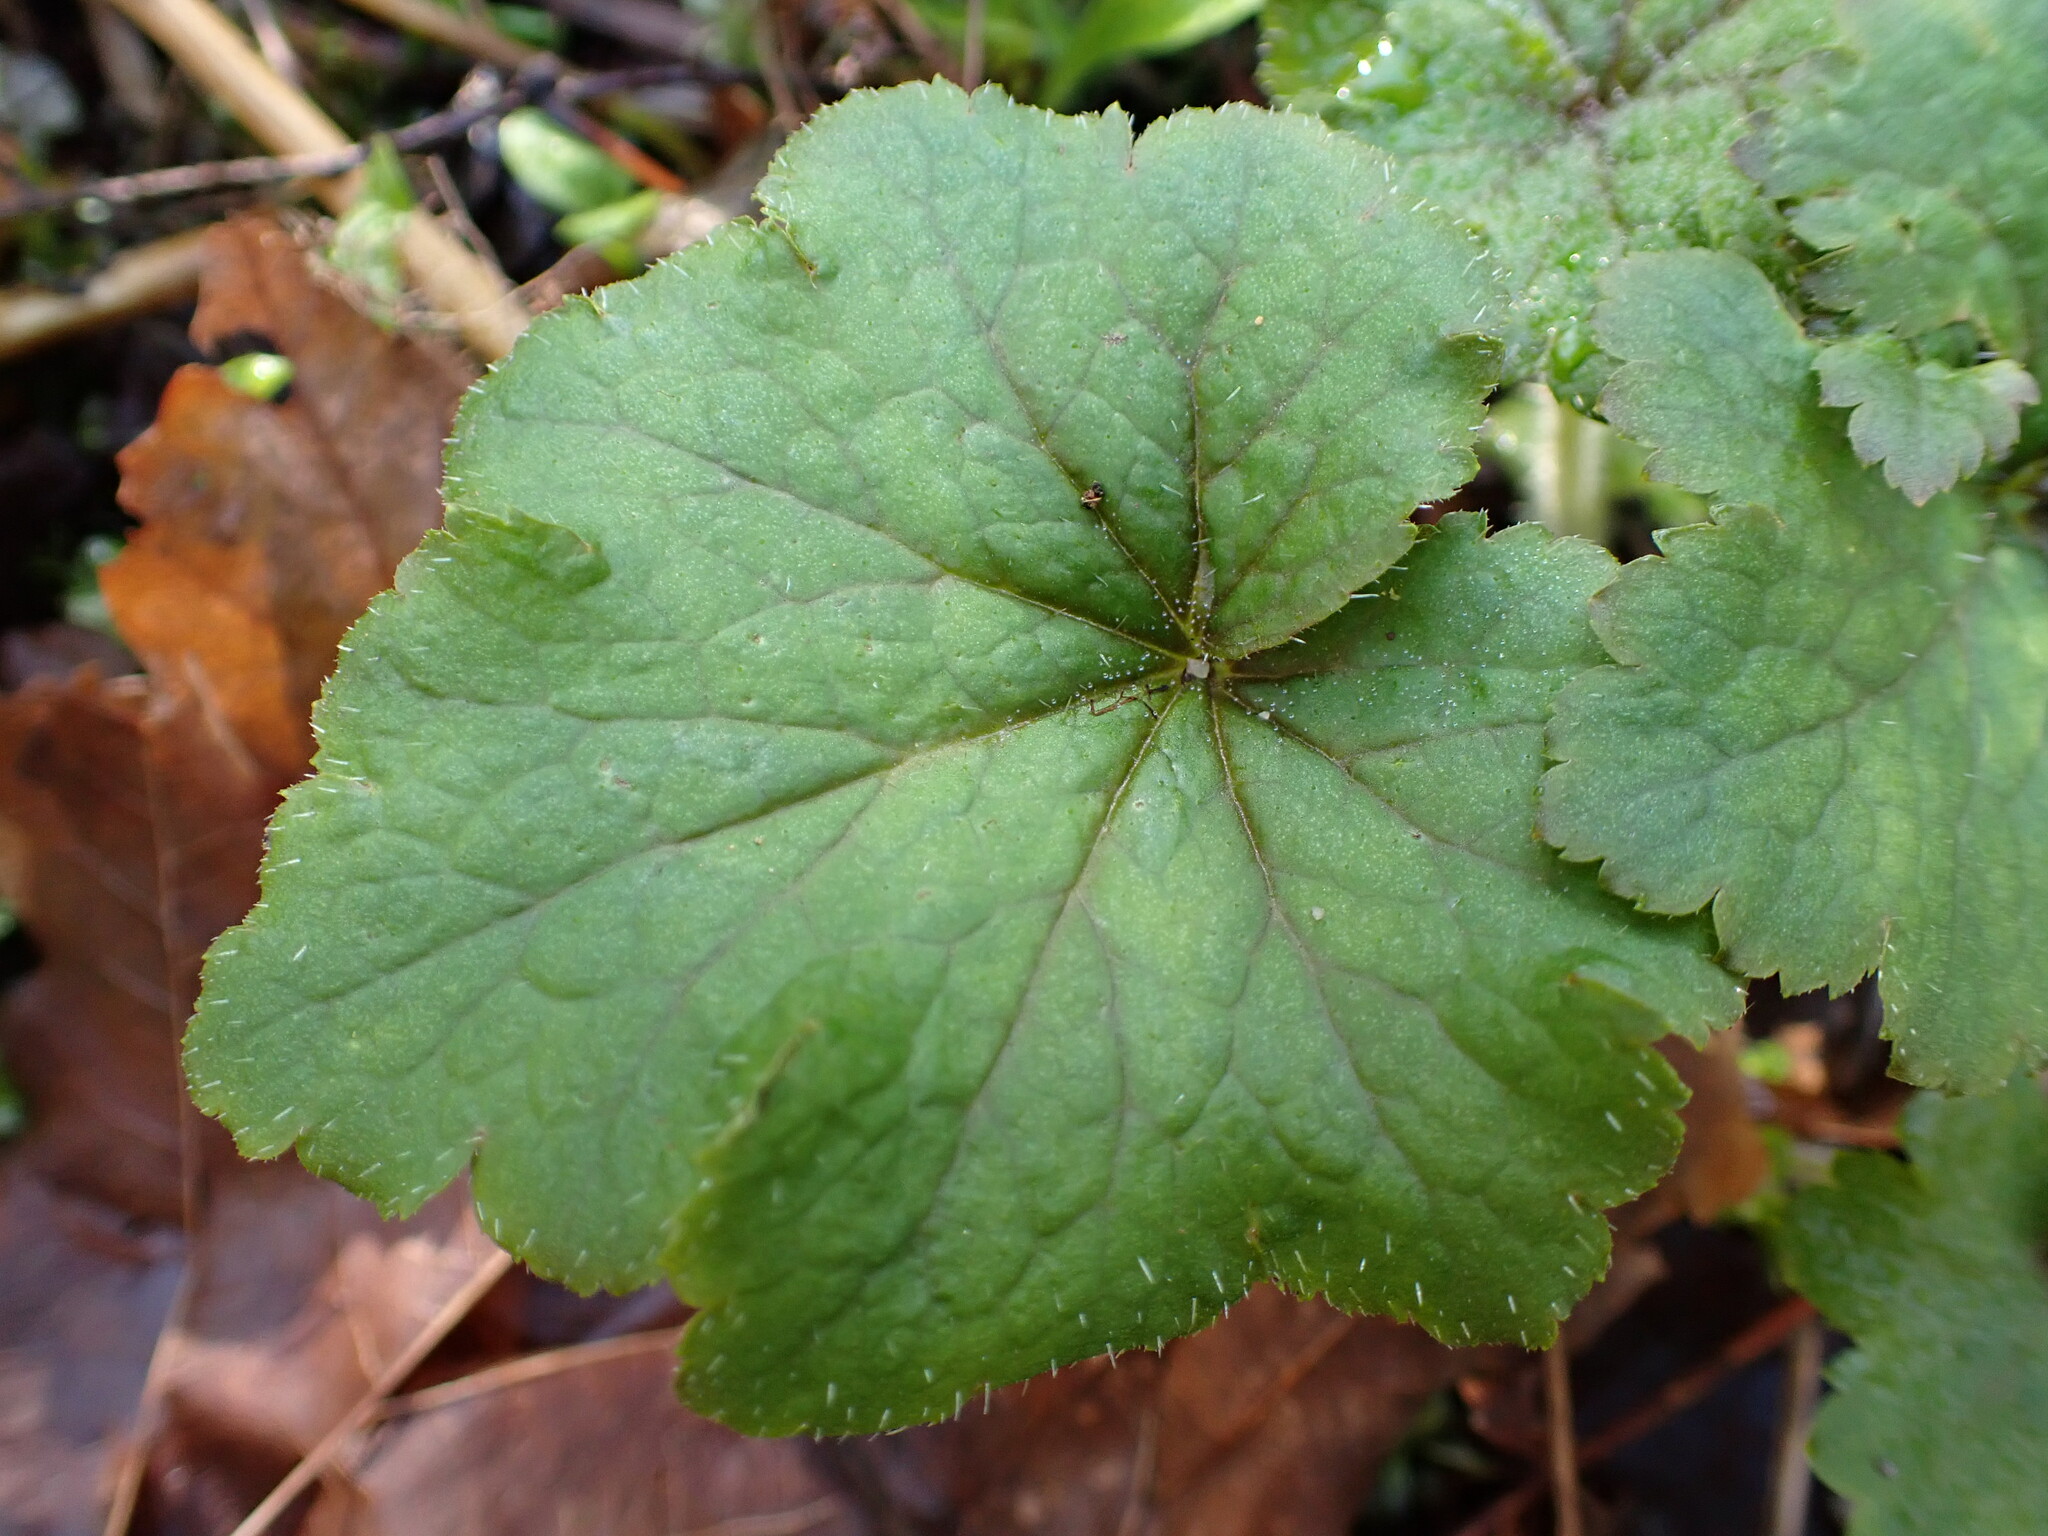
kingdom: Plantae
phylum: Tracheophyta
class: Magnoliopsida
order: Saxifragales
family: Saxifragaceae
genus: Tellima
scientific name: Tellima grandiflora
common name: Fringecups
